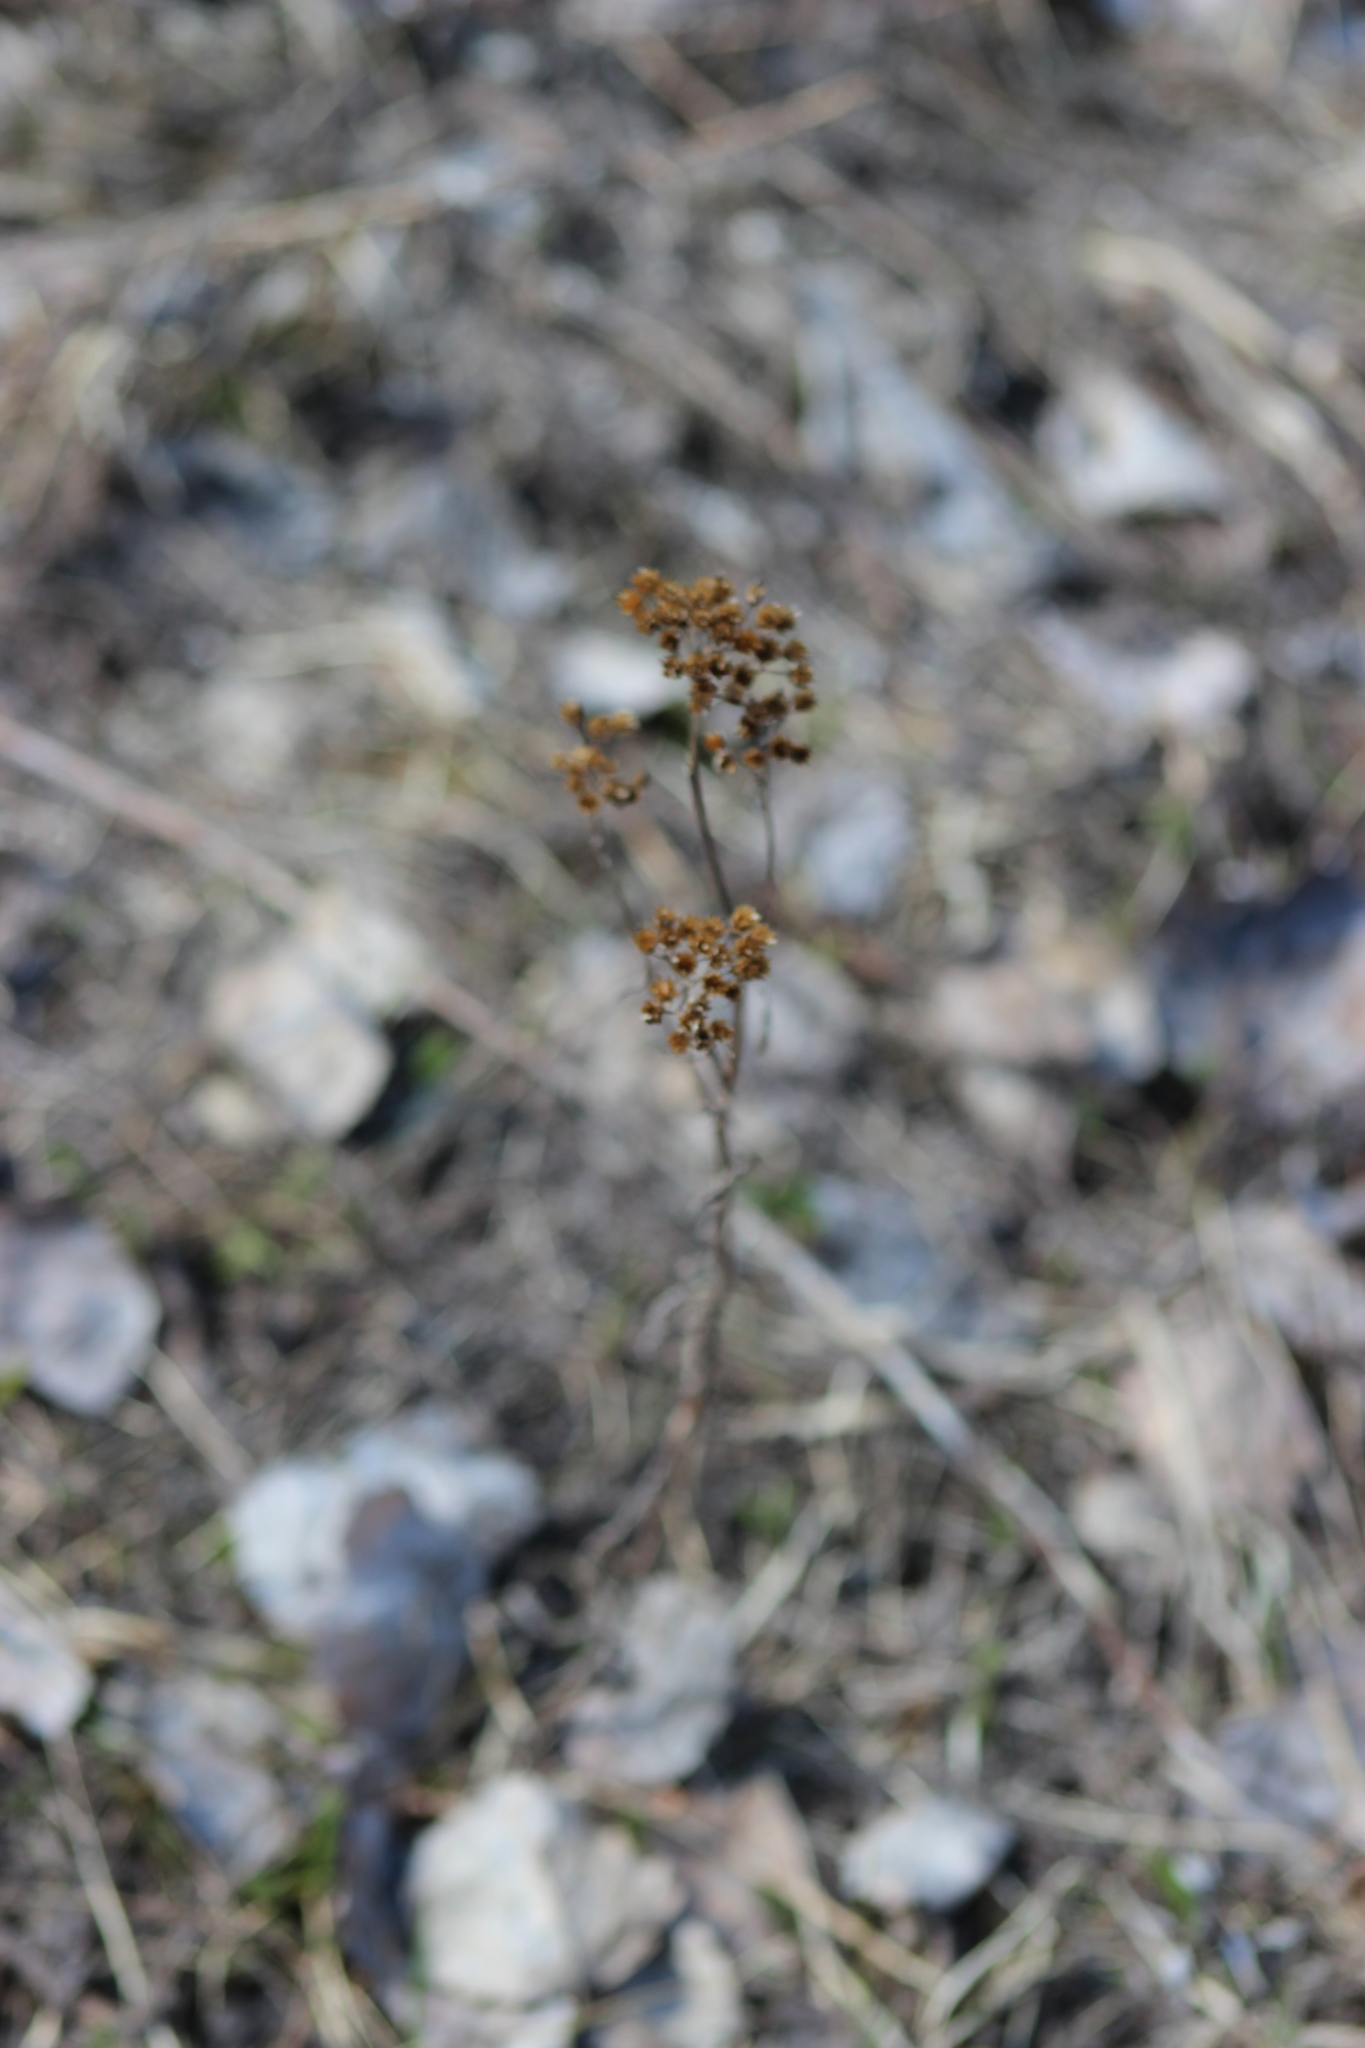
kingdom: Plantae
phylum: Tracheophyta
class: Magnoliopsida
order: Asterales
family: Asteraceae
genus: Achillea
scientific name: Achillea millefolium
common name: Yarrow
